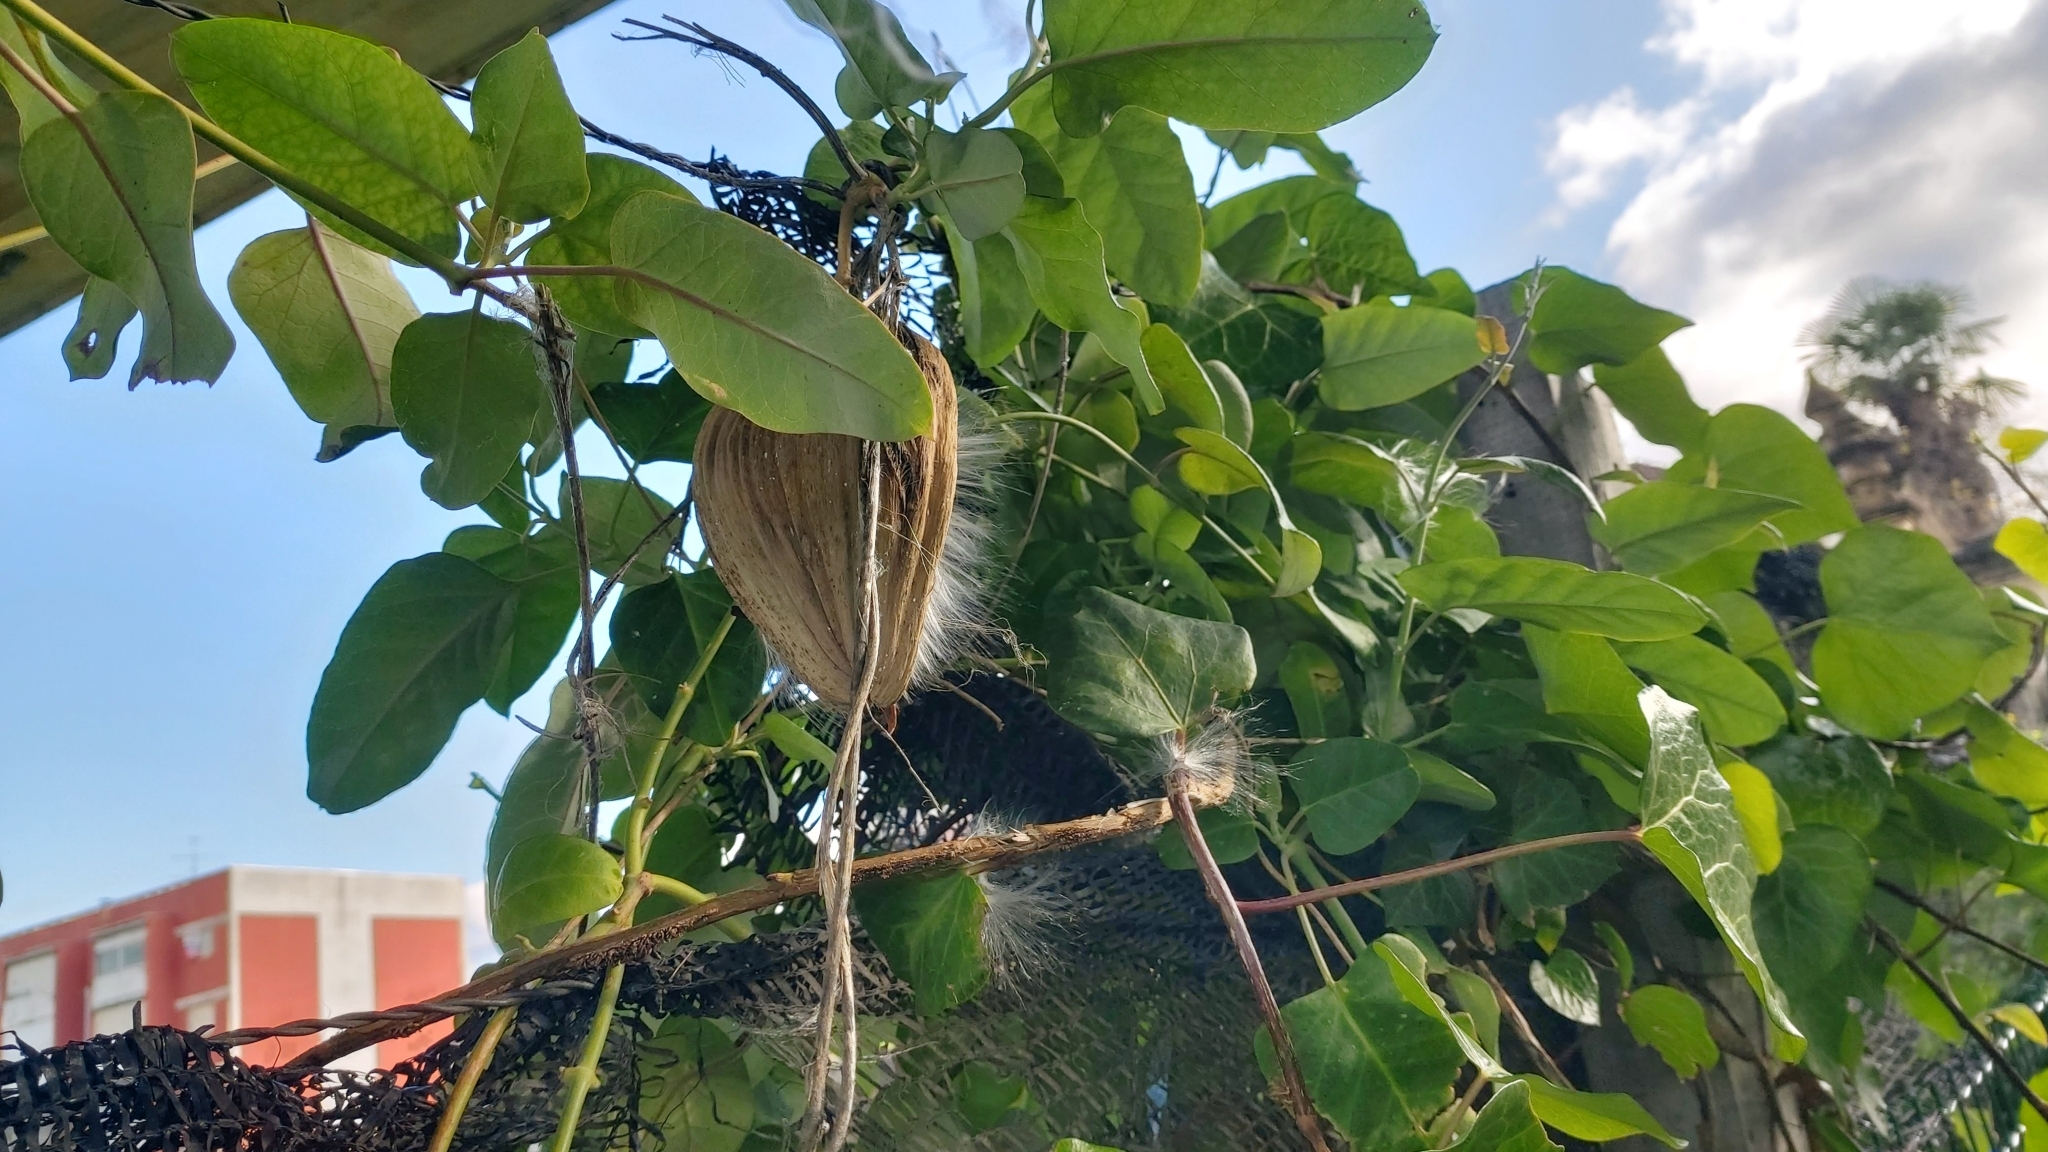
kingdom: Plantae
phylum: Tracheophyta
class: Magnoliopsida
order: Gentianales
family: Apocynaceae
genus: Araujia
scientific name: Araujia sericifera
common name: White bladderflower
